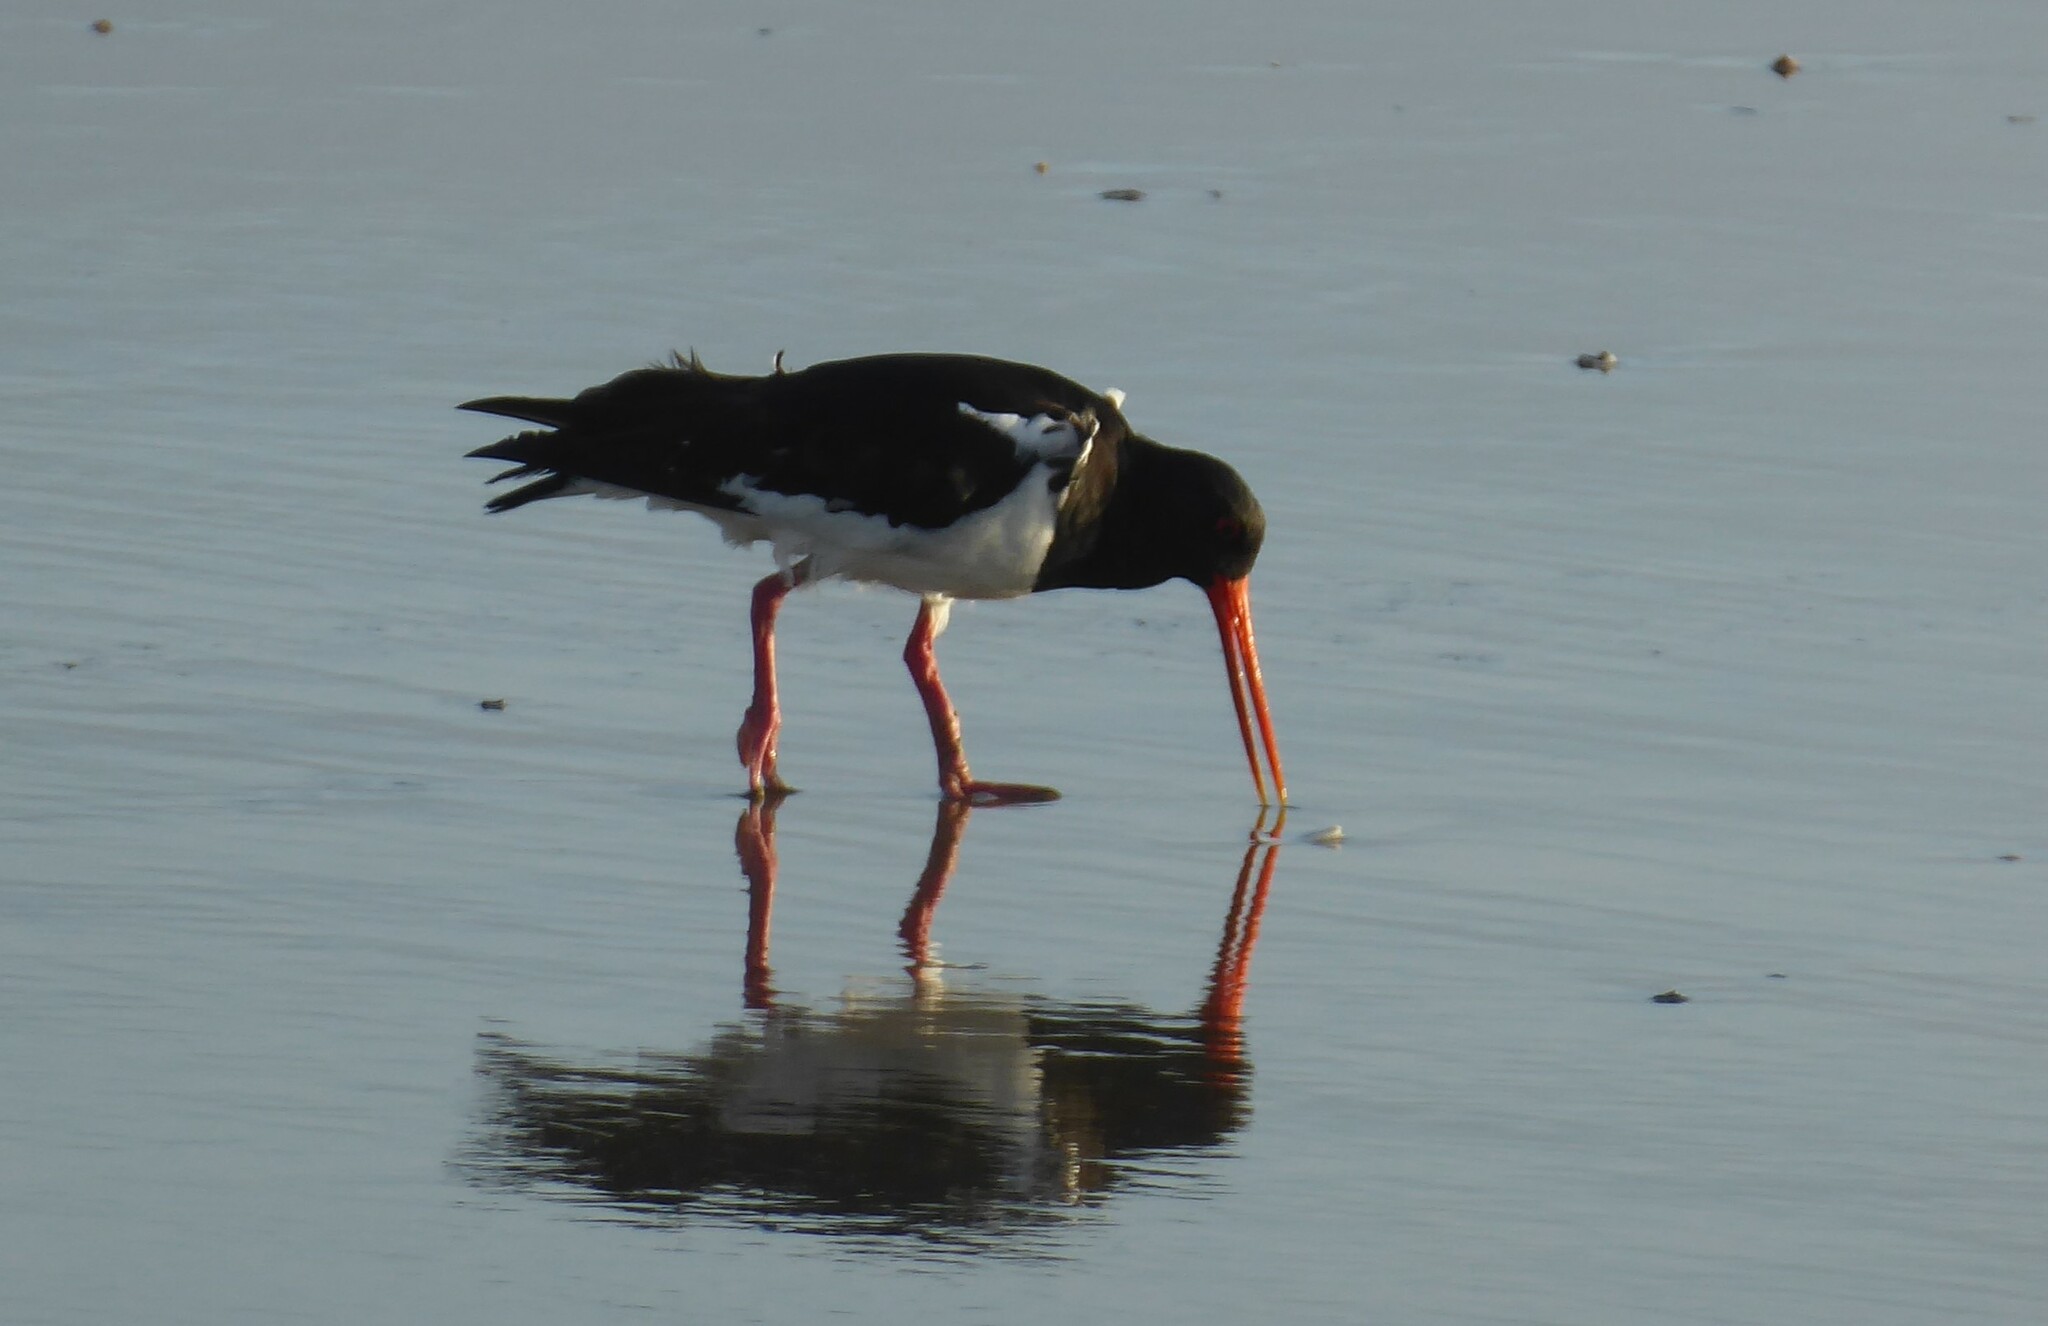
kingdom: Animalia
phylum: Chordata
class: Aves
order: Charadriiformes
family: Haematopodidae
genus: Haematopus
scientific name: Haematopus finschi
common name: South island oystercatcher
